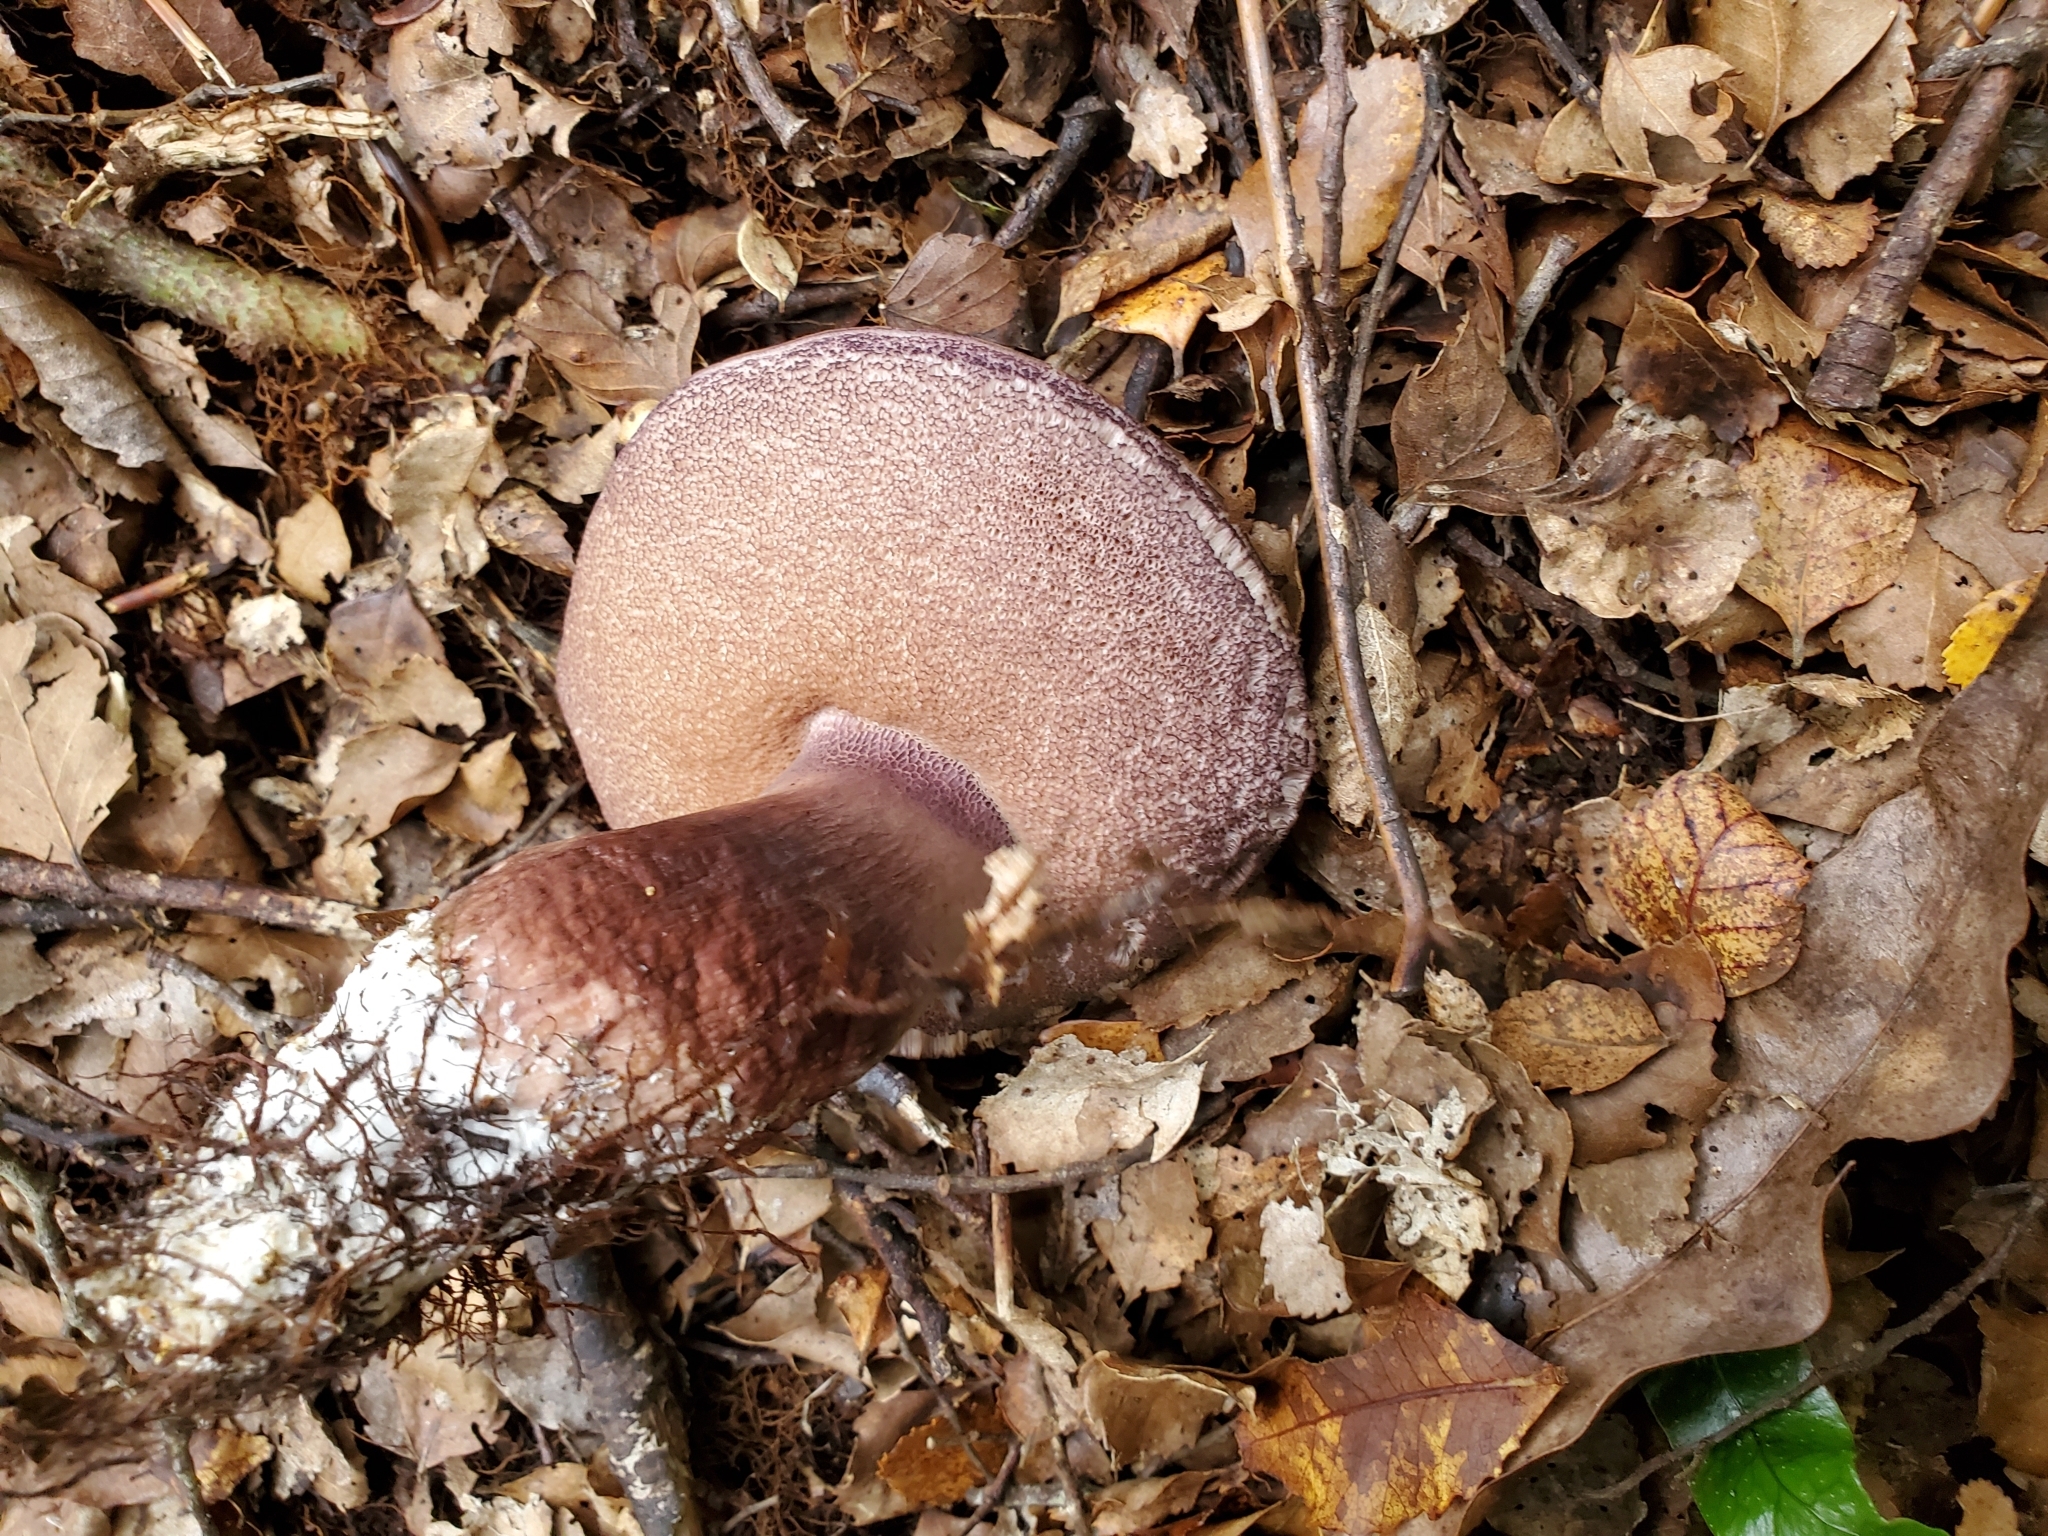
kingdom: Fungi
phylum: Basidiomycota
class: Agaricomycetes
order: Boletales
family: Boletaceae
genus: Porphyrellus
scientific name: Porphyrellus formosus
